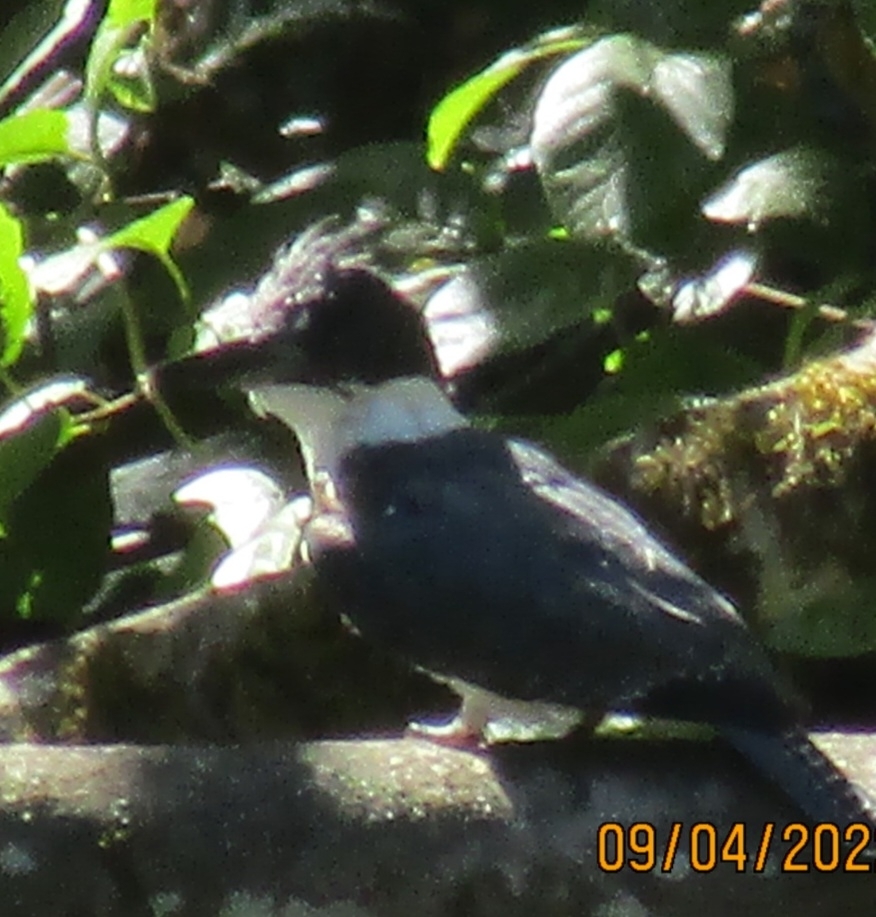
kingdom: Animalia
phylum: Chordata
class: Aves
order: Coraciiformes
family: Alcedinidae
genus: Megaceryle
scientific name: Megaceryle alcyon
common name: Belted kingfisher
